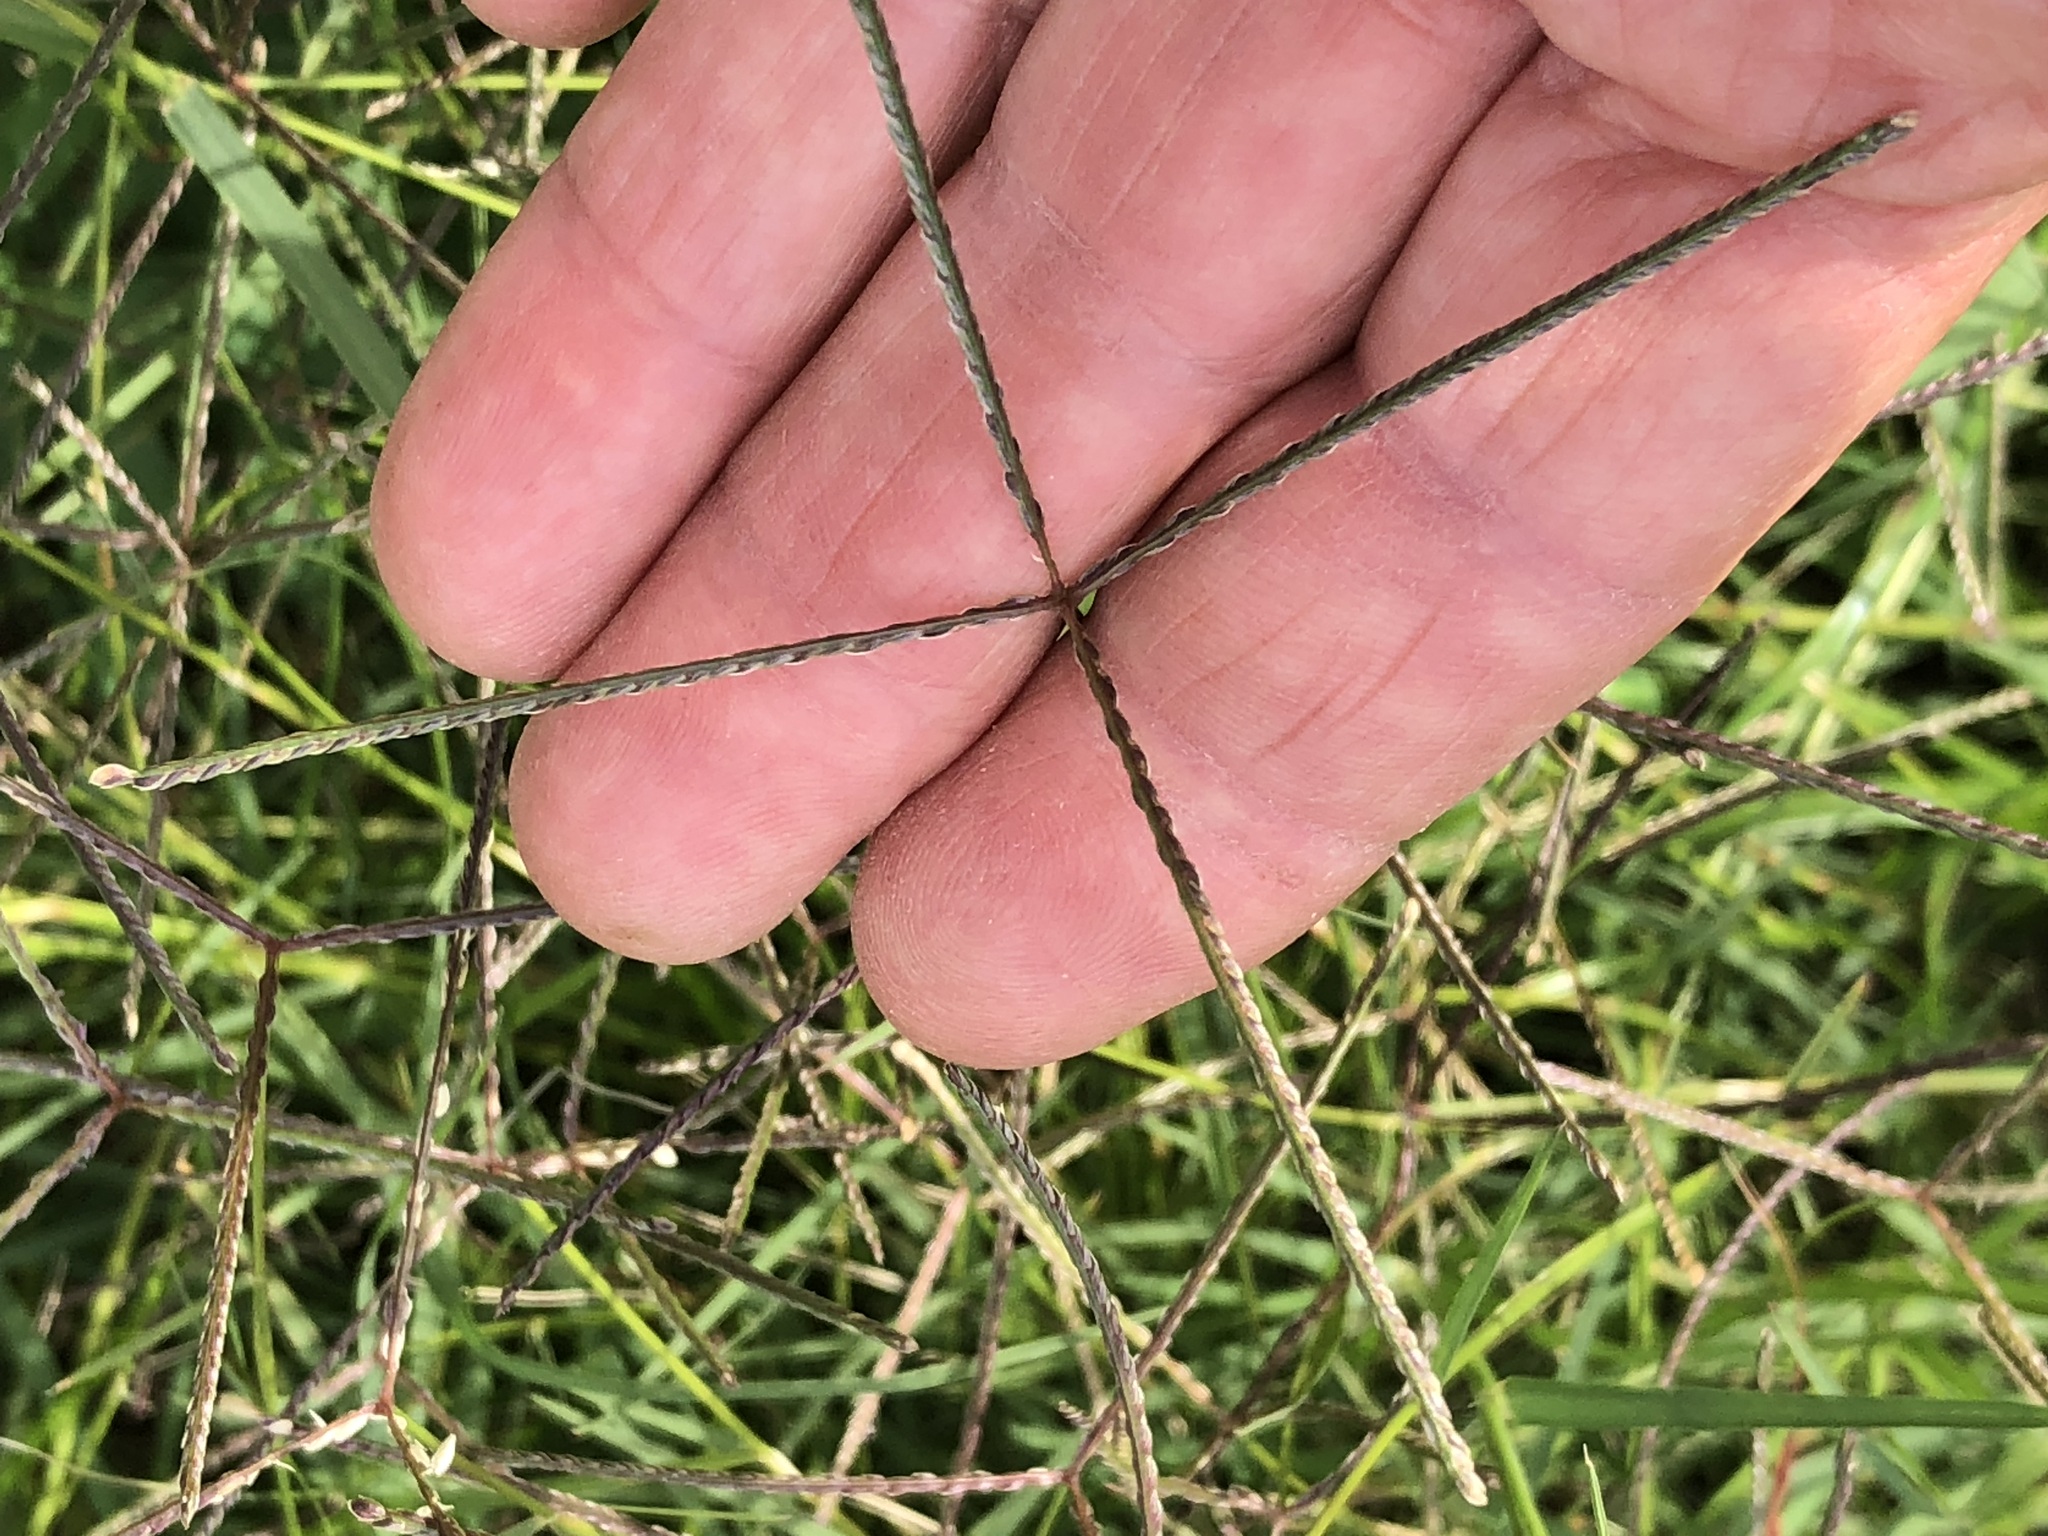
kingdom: Plantae
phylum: Tracheophyta
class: Liliopsida
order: Poales
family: Poaceae
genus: Cynodon
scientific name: Cynodon dactylon
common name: Bermuda grass
